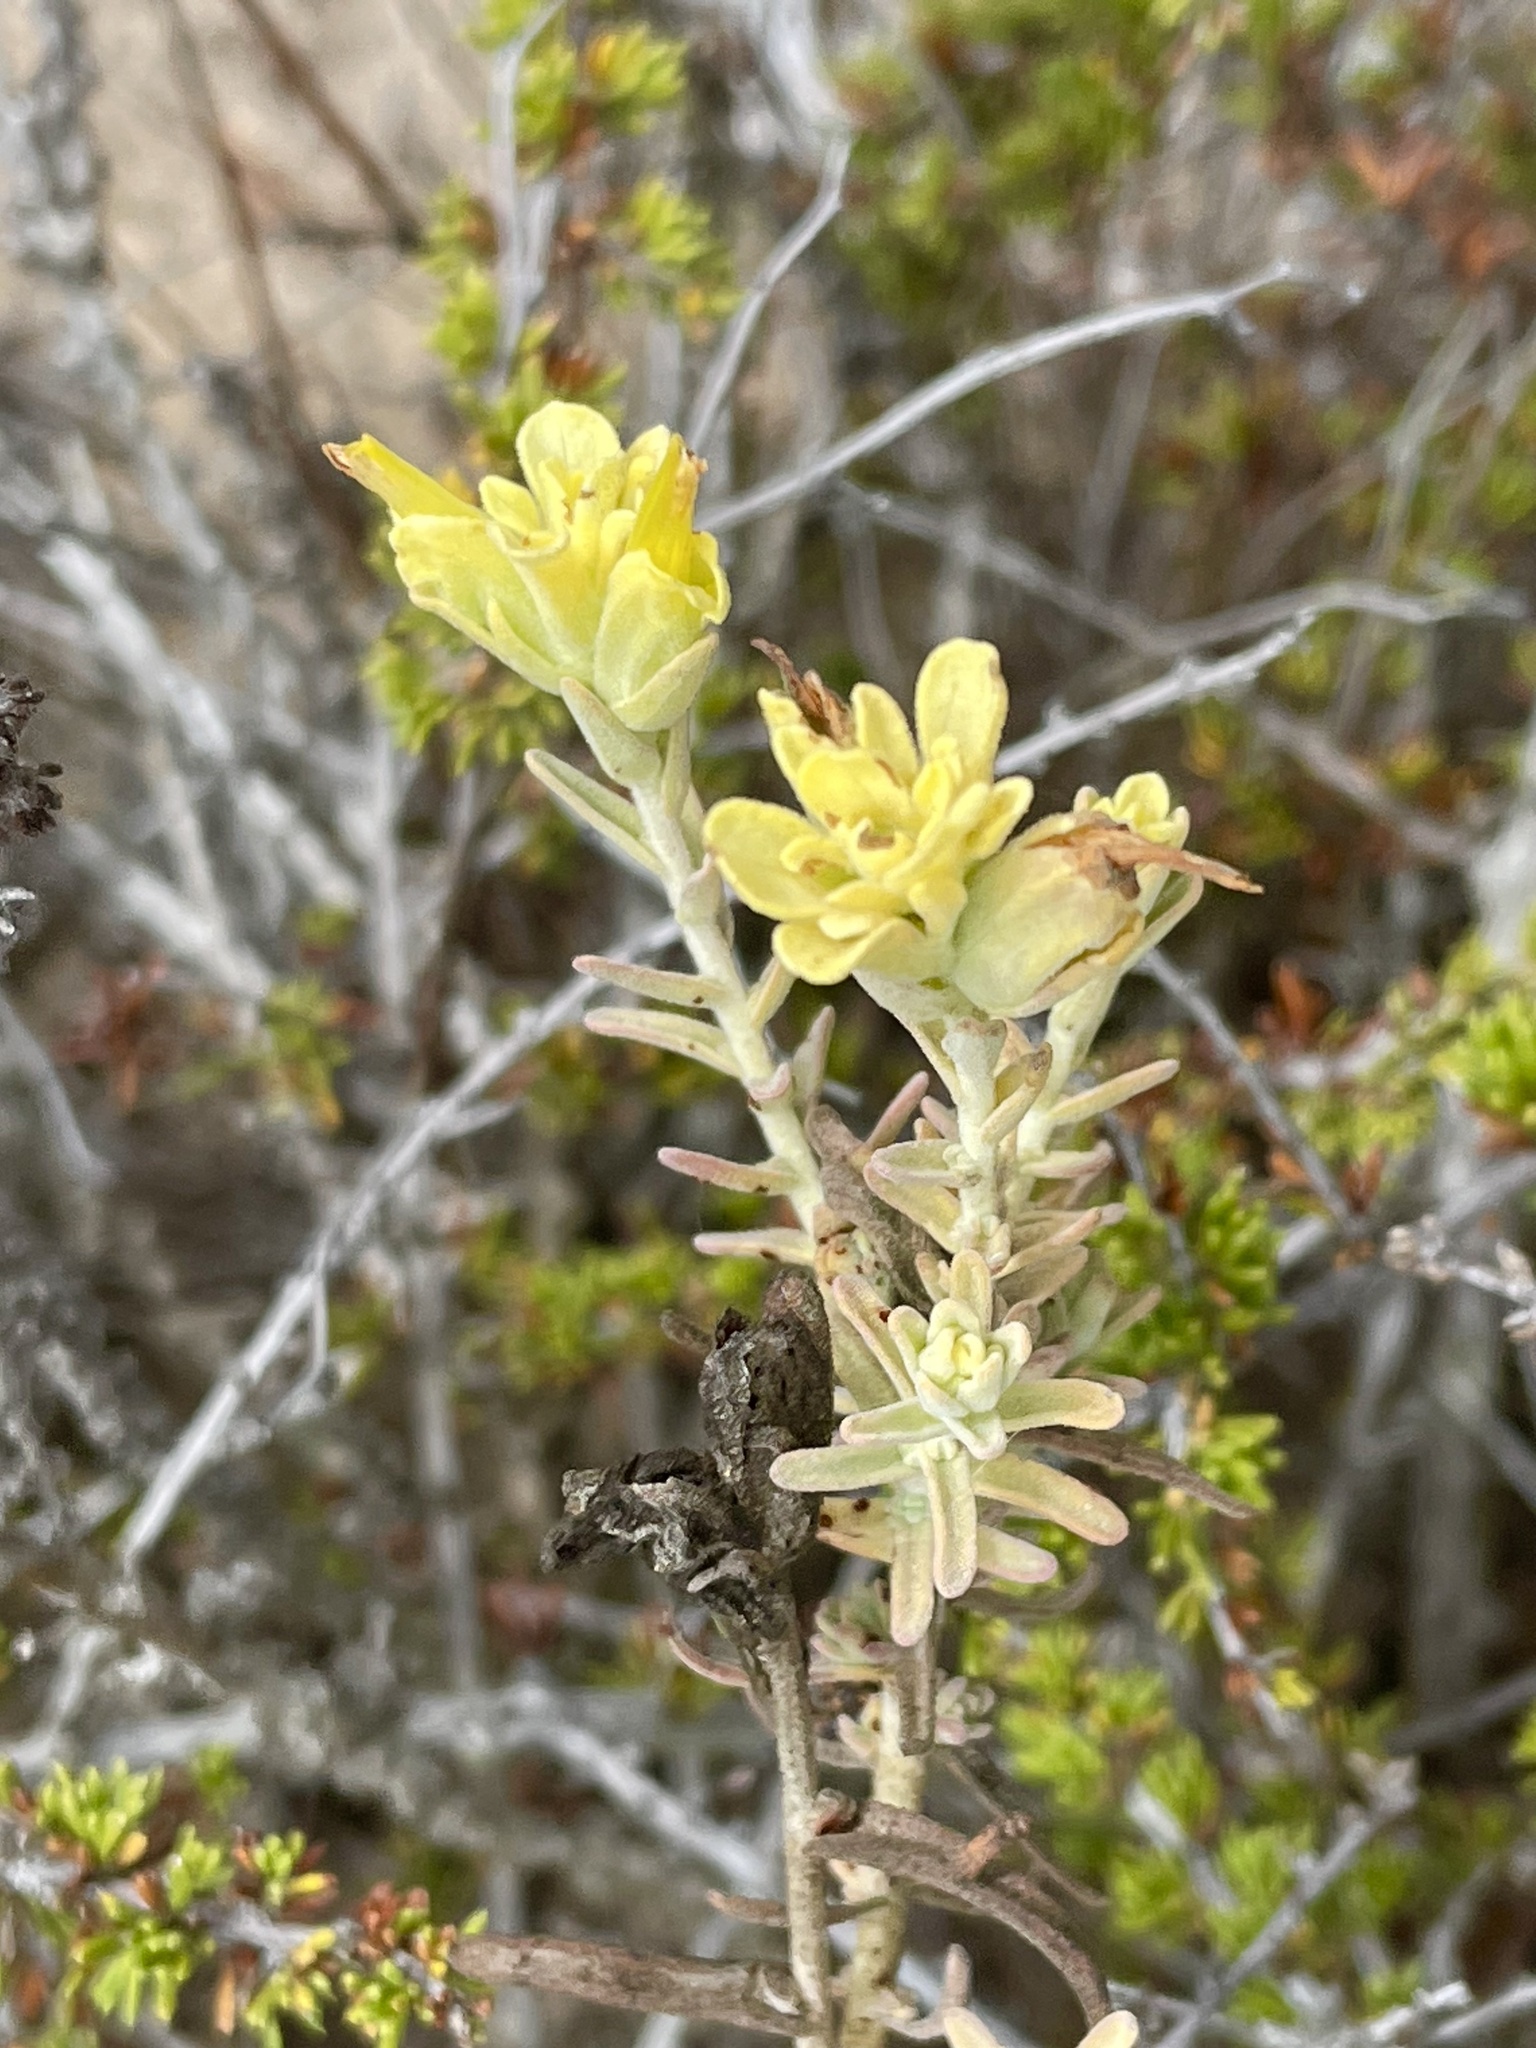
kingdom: Plantae
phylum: Tracheophyta
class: Magnoliopsida
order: Lamiales
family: Orobanchaceae
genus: Castilleja
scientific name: Castilleja foliolosa
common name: Woolly indian paintbrush
